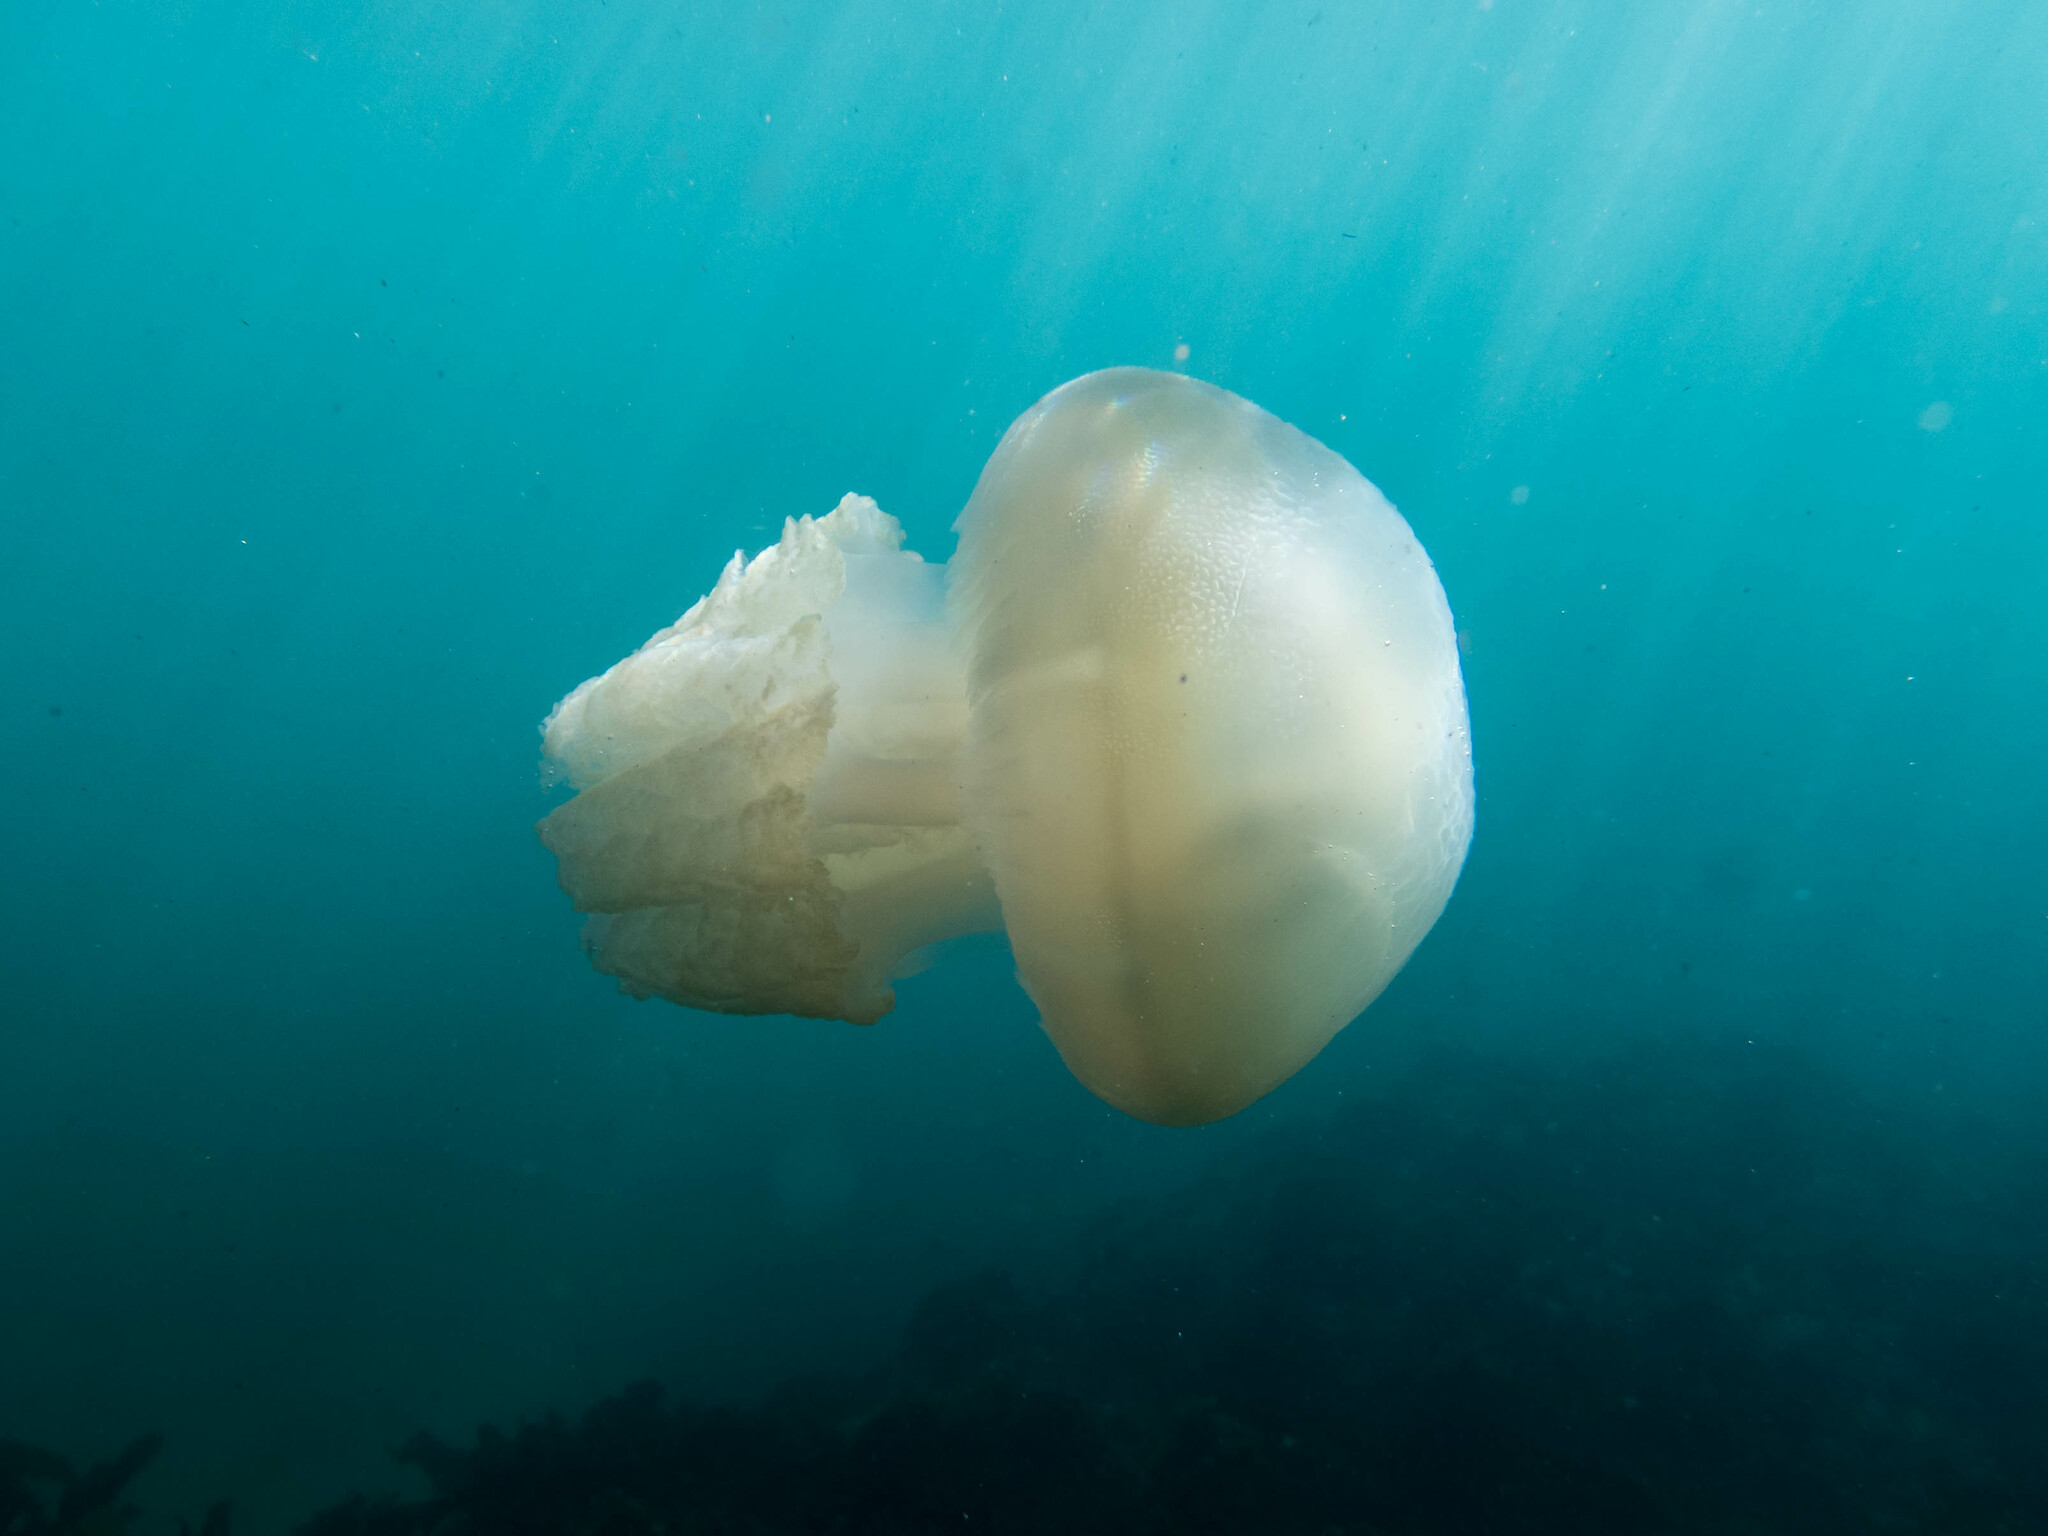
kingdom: Animalia
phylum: Cnidaria
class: Scyphozoa
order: Rhizostomeae
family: Catostylidae
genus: Catostylus
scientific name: Catostylus mosaicus
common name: Blue blubber
